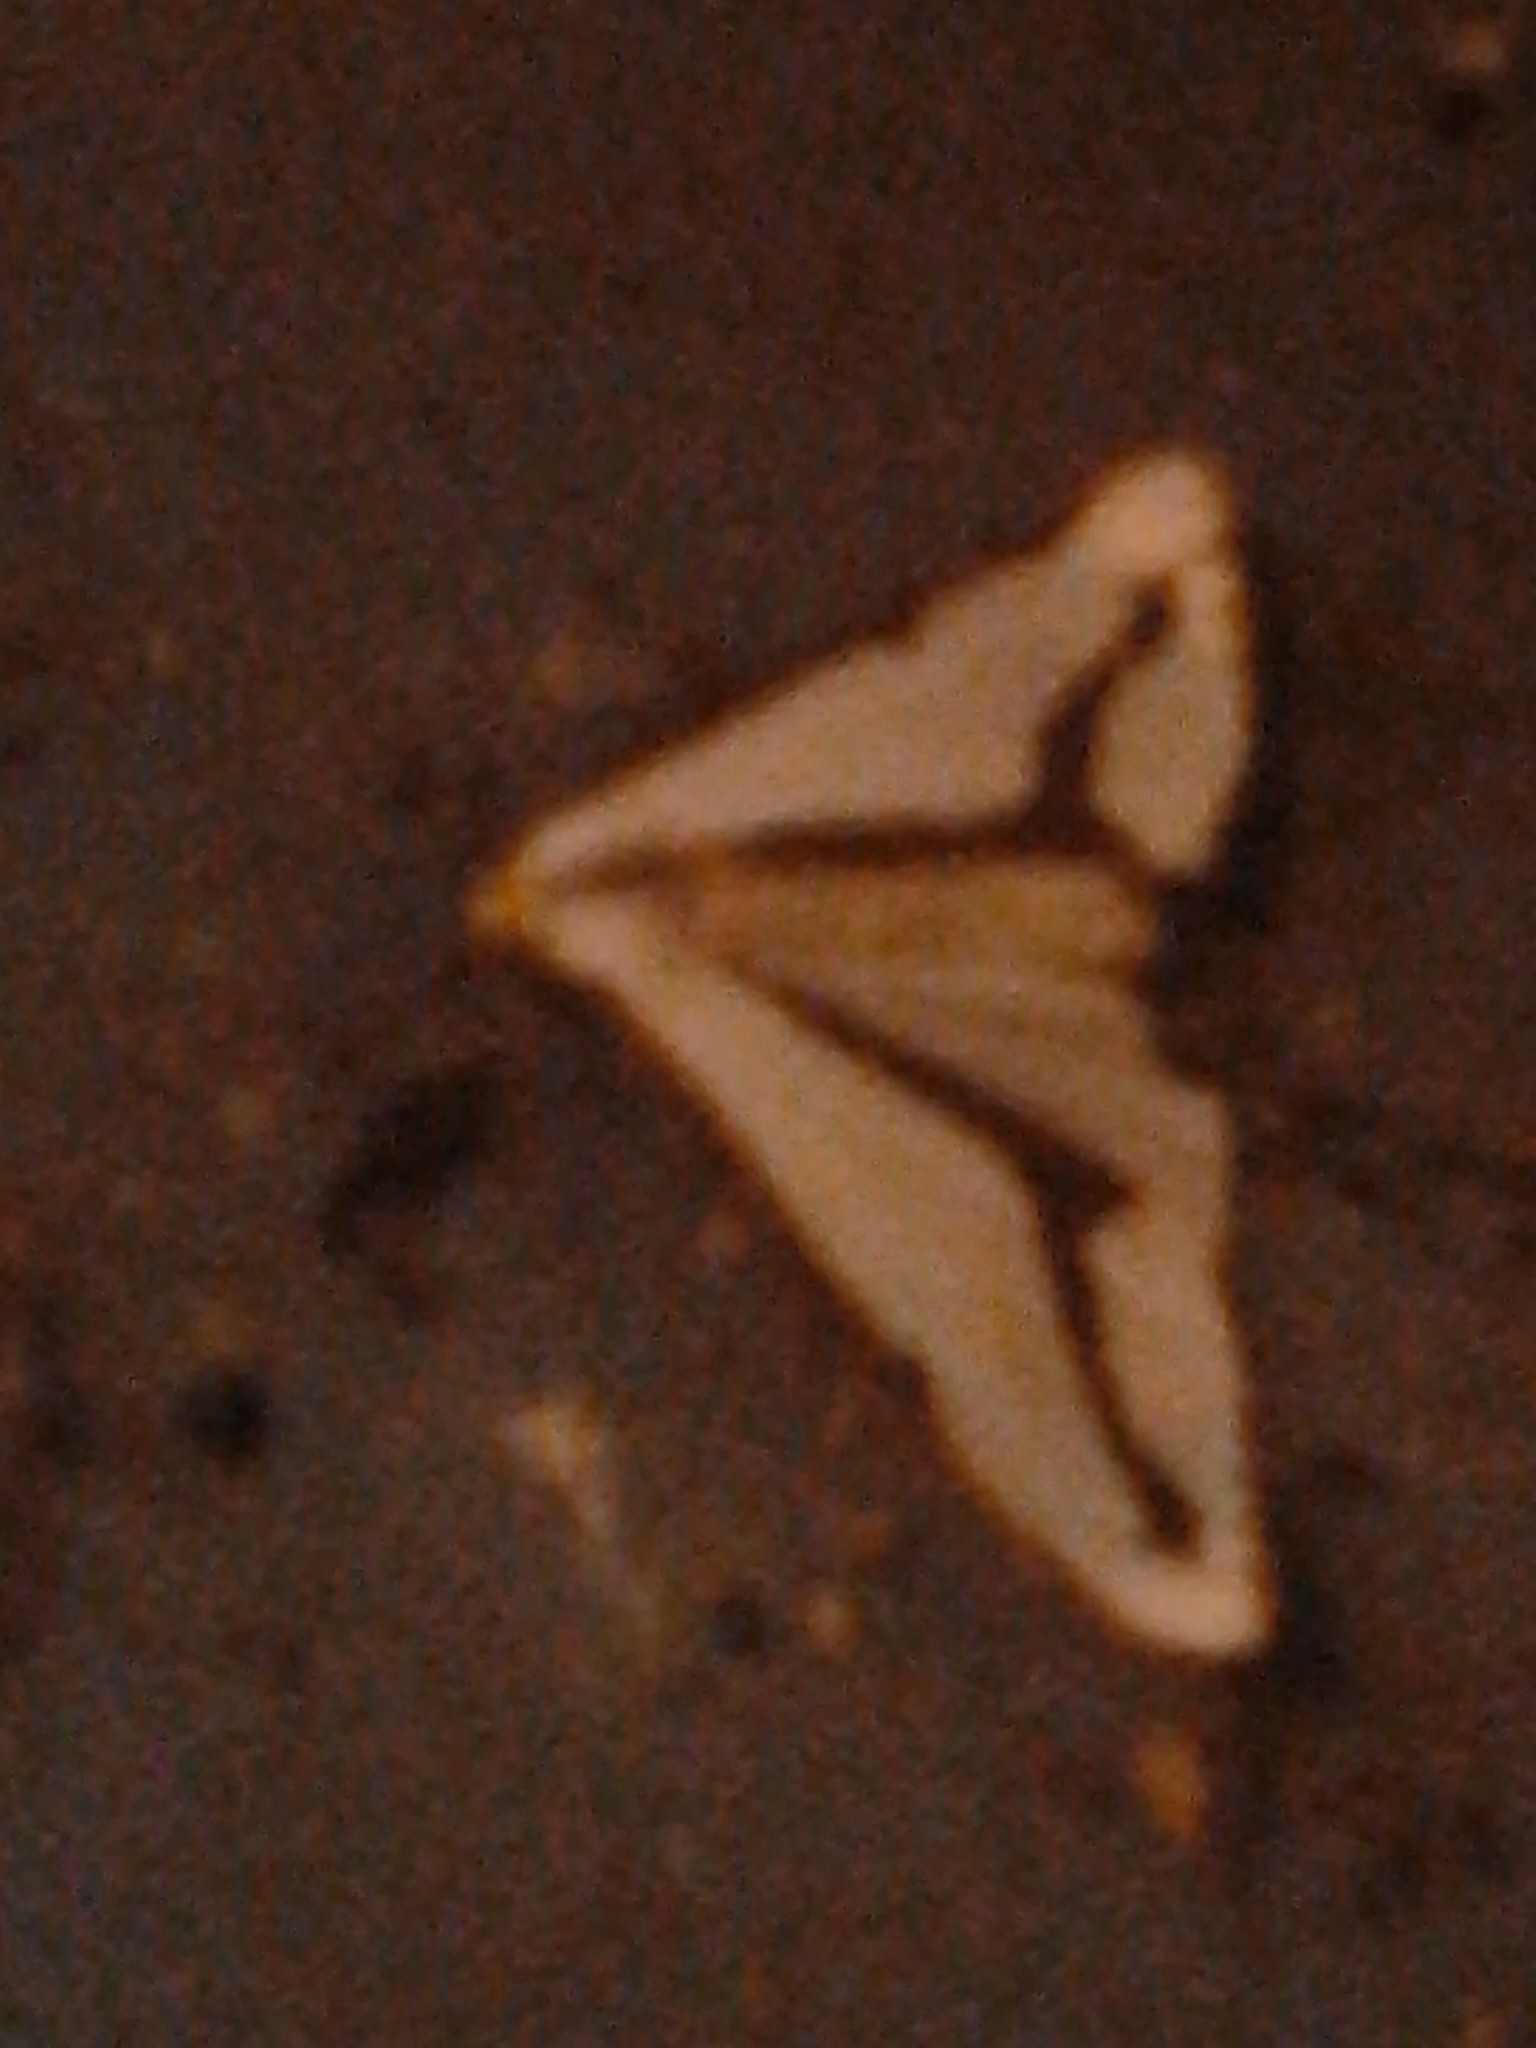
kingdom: Animalia
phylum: Arthropoda
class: Insecta
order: Lepidoptera
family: Erebidae
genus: Haploa
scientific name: Haploa lecontei
